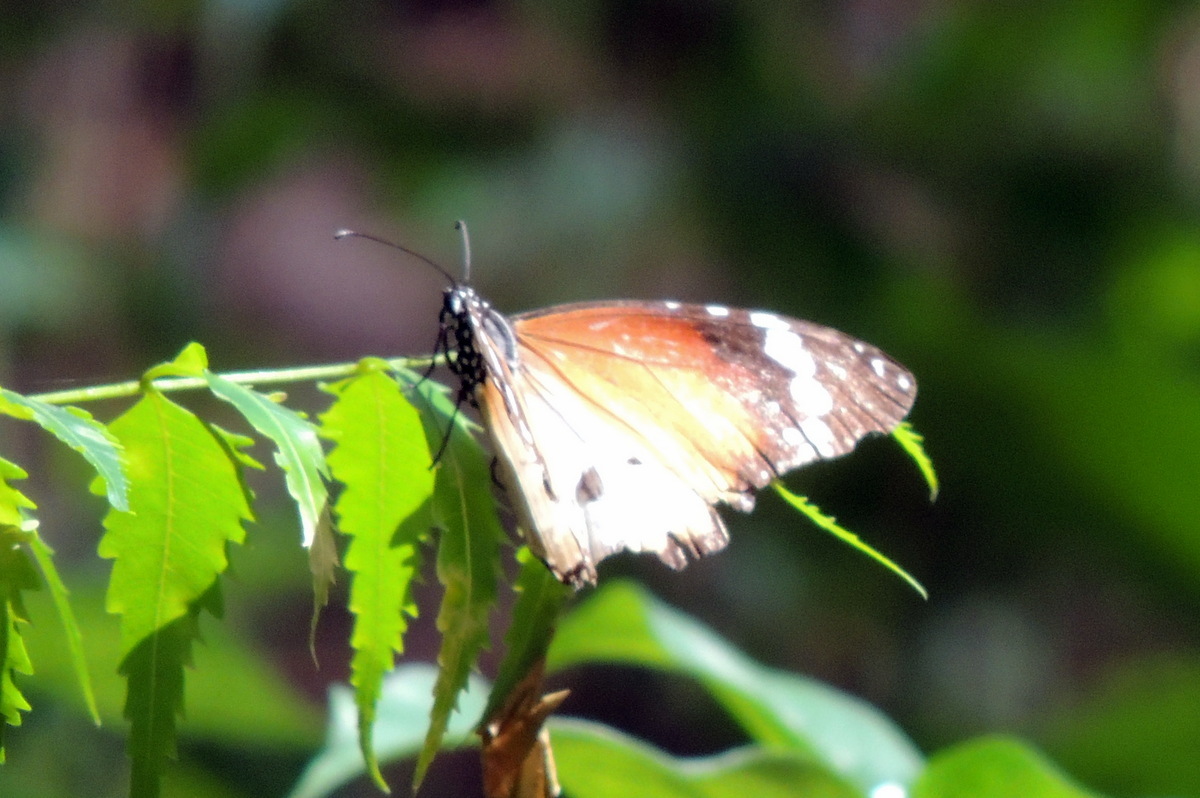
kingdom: Animalia
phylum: Arthropoda
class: Insecta
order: Lepidoptera
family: Nymphalidae
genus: Danaus
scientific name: Danaus chrysippus
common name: Plain tiger
